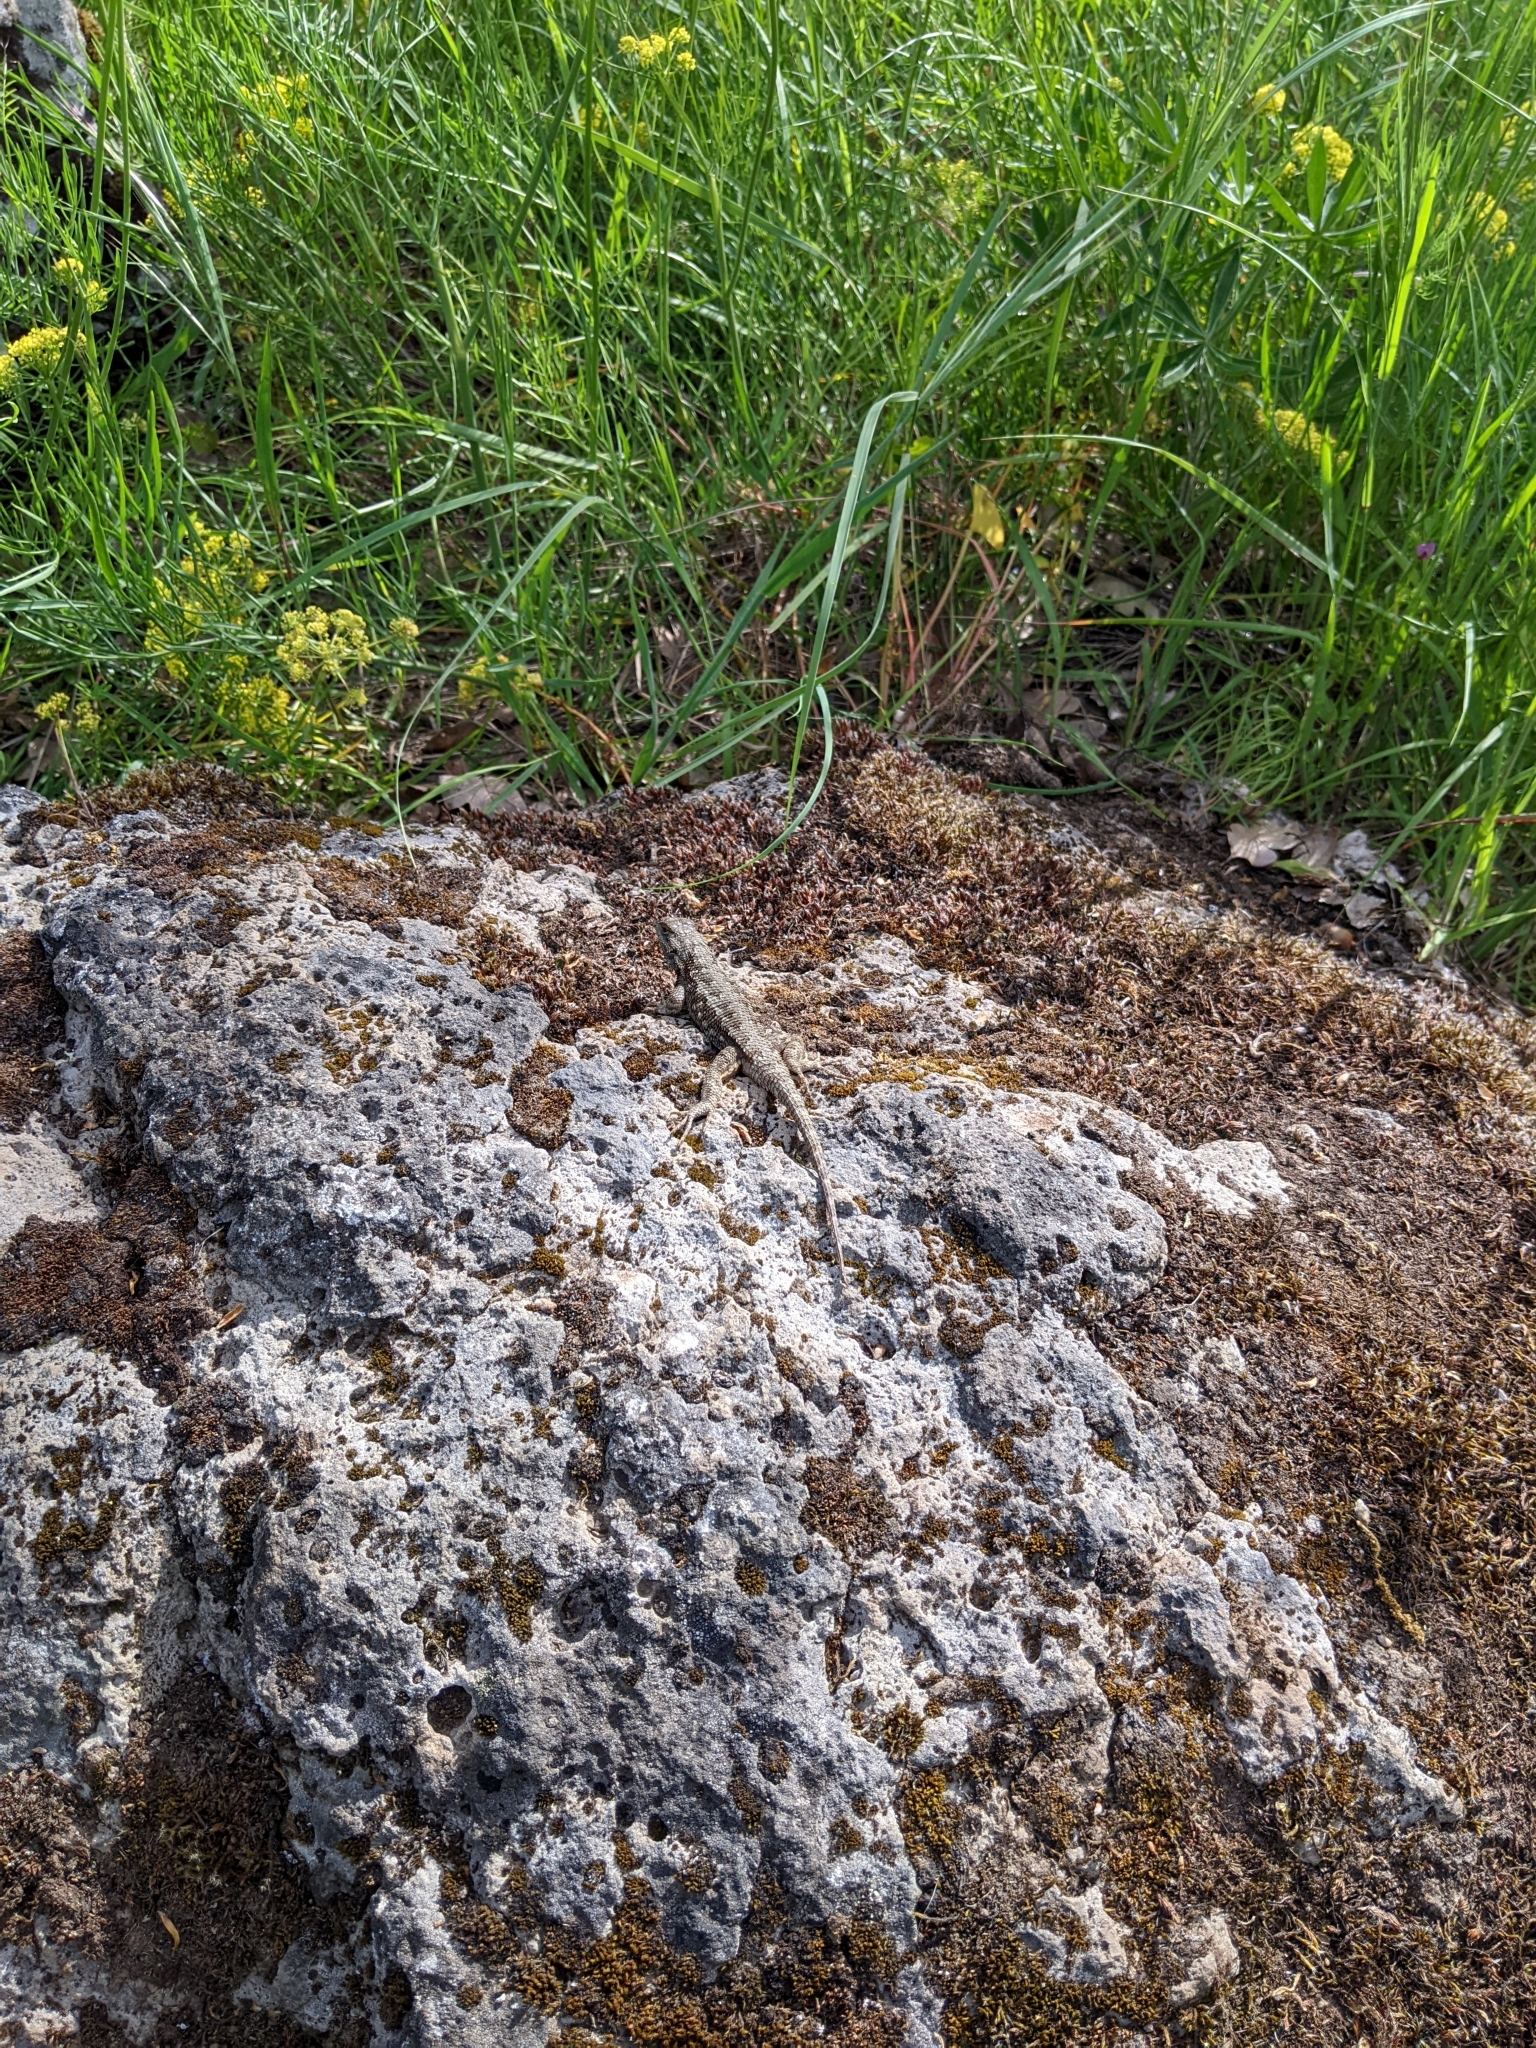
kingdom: Animalia
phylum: Chordata
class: Squamata
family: Phrynosomatidae
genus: Sceloporus
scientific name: Sceloporus occidentalis
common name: Western fence lizard
